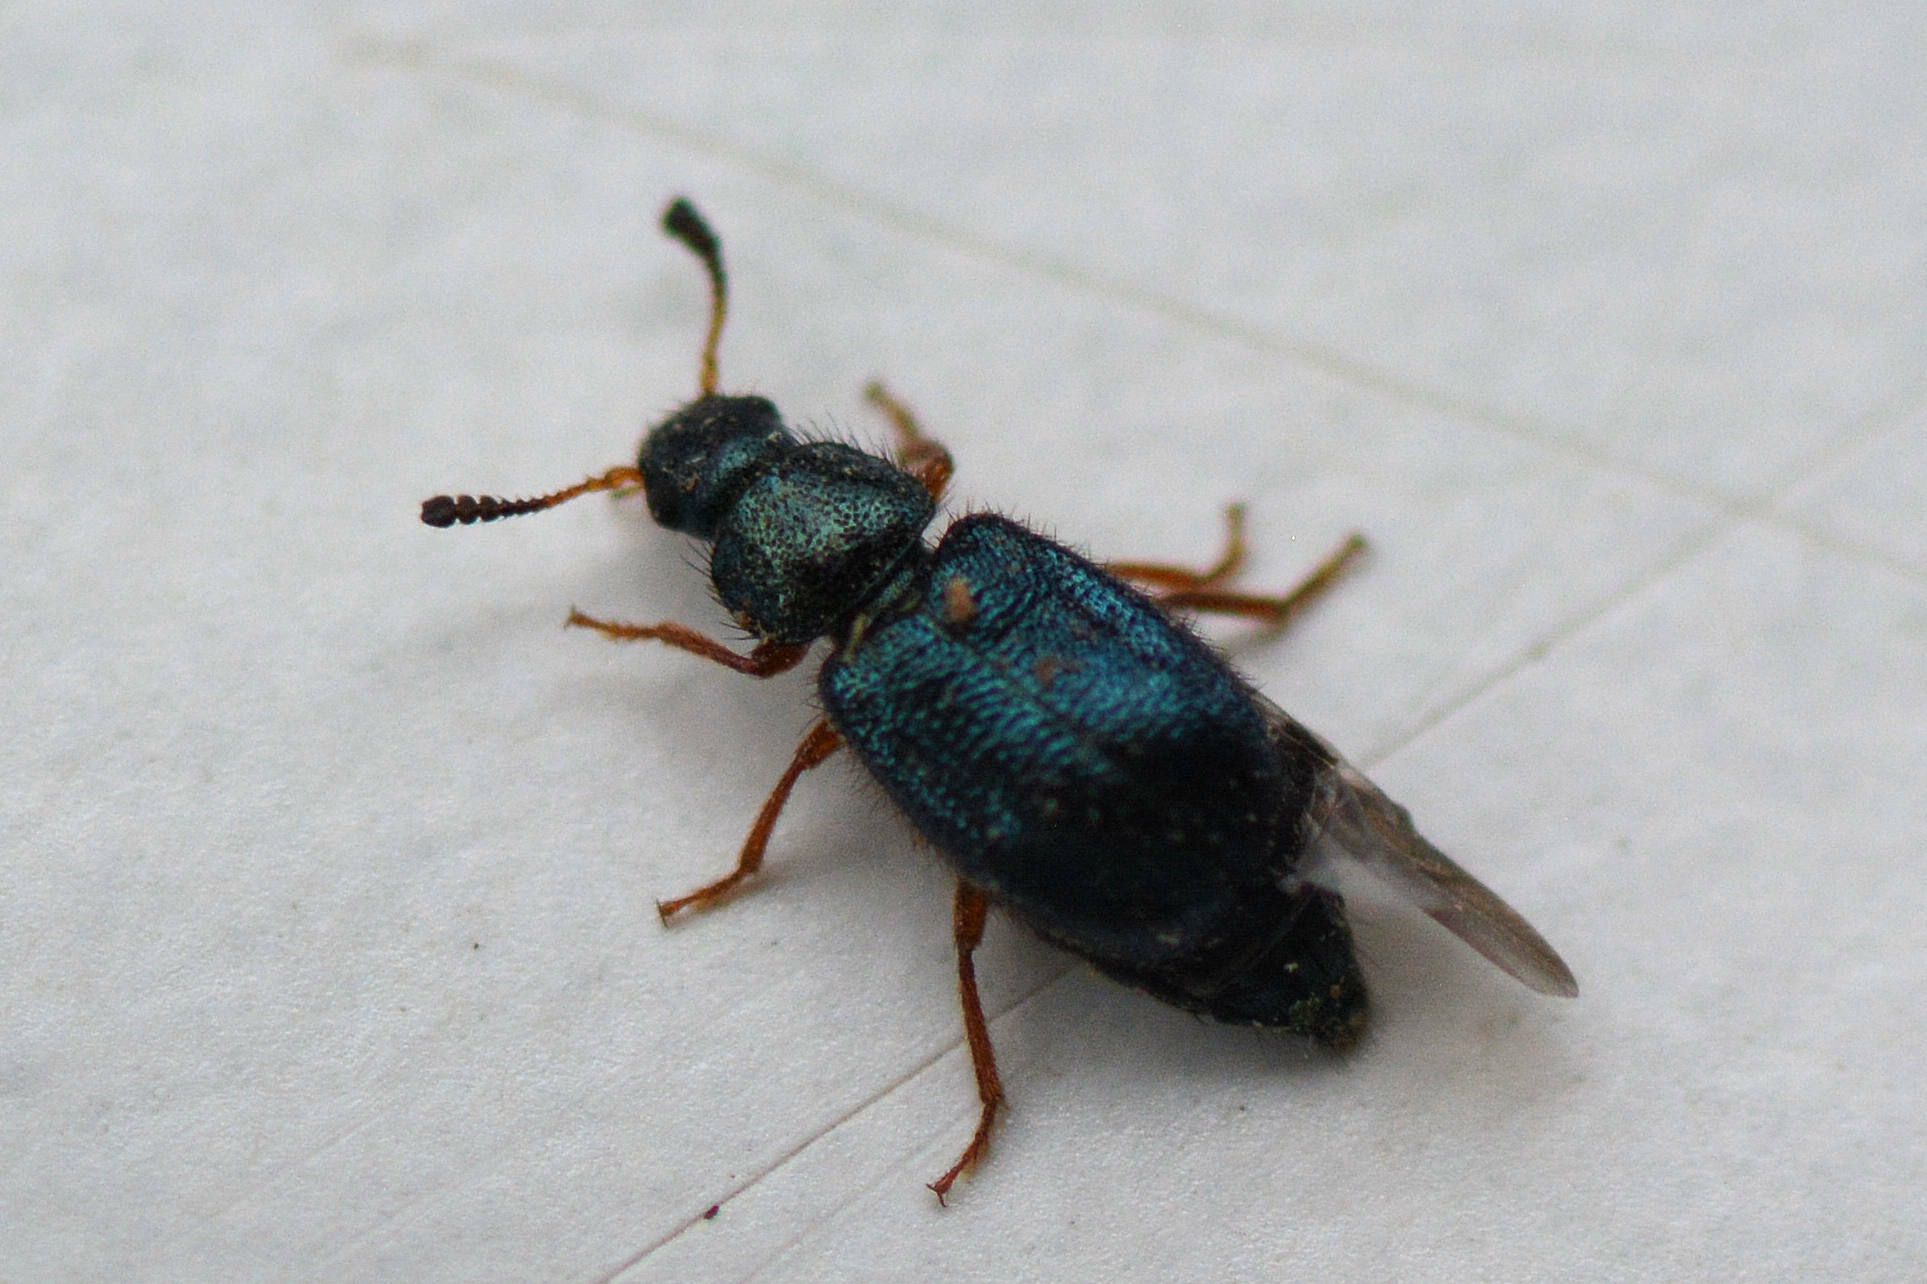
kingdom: Animalia
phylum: Arthropoda
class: Insecta
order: Coleoptera
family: Cleridae
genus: Necrobia
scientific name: Necrobia rufipes
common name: Red-legged ham beetle
